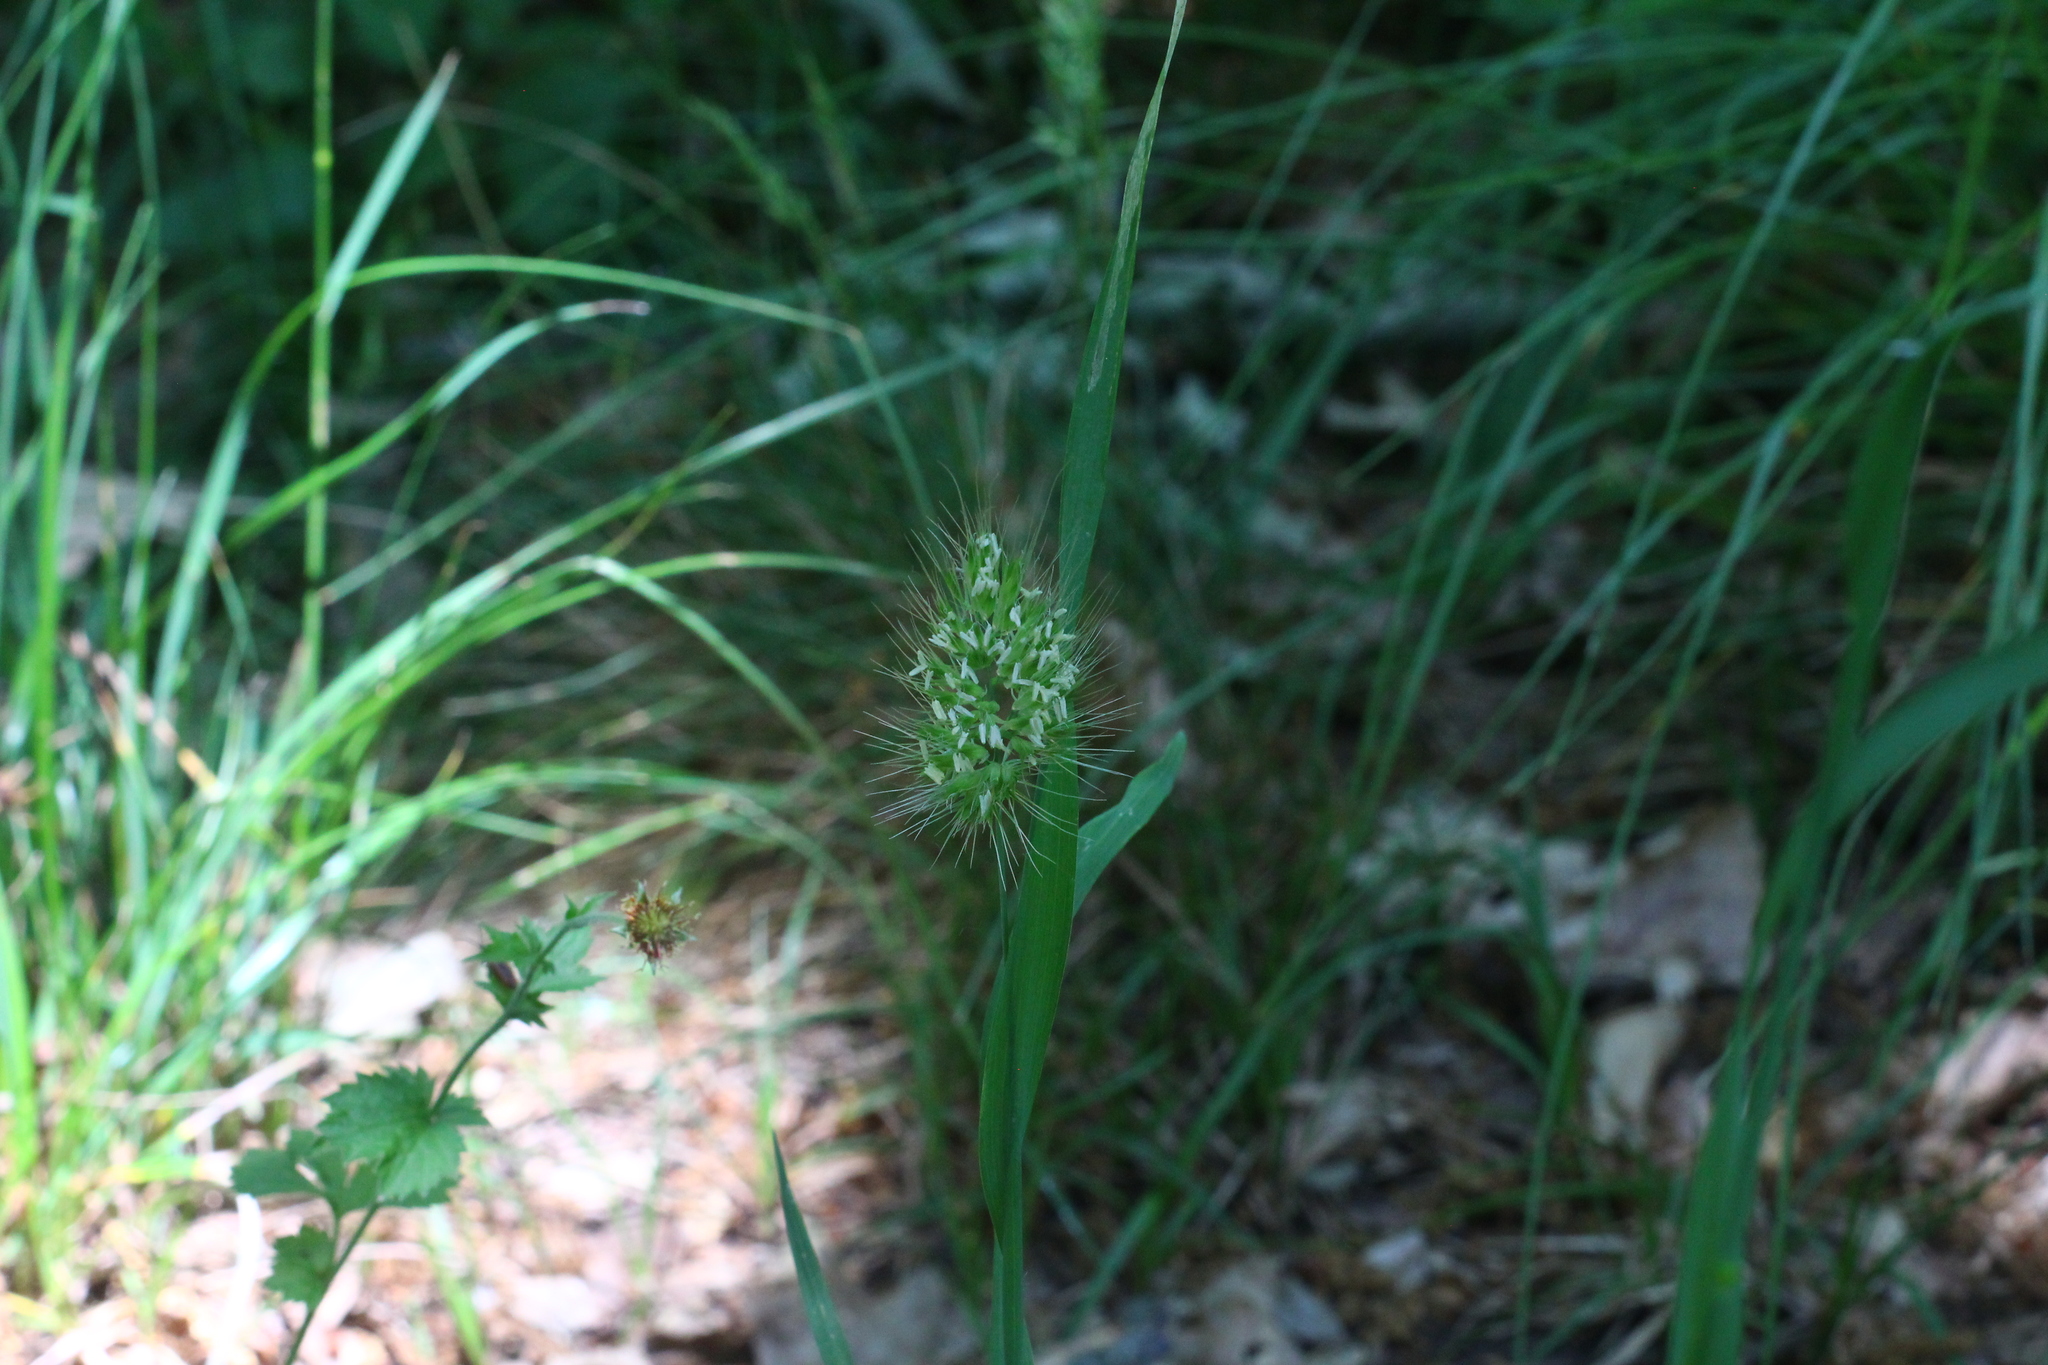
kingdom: Plantae
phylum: Tracheophyta
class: Liliopsida
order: Poales
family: Poaceae
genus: Cynosurus
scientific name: Cynosurus echinatus
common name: Rough dog's-tail
